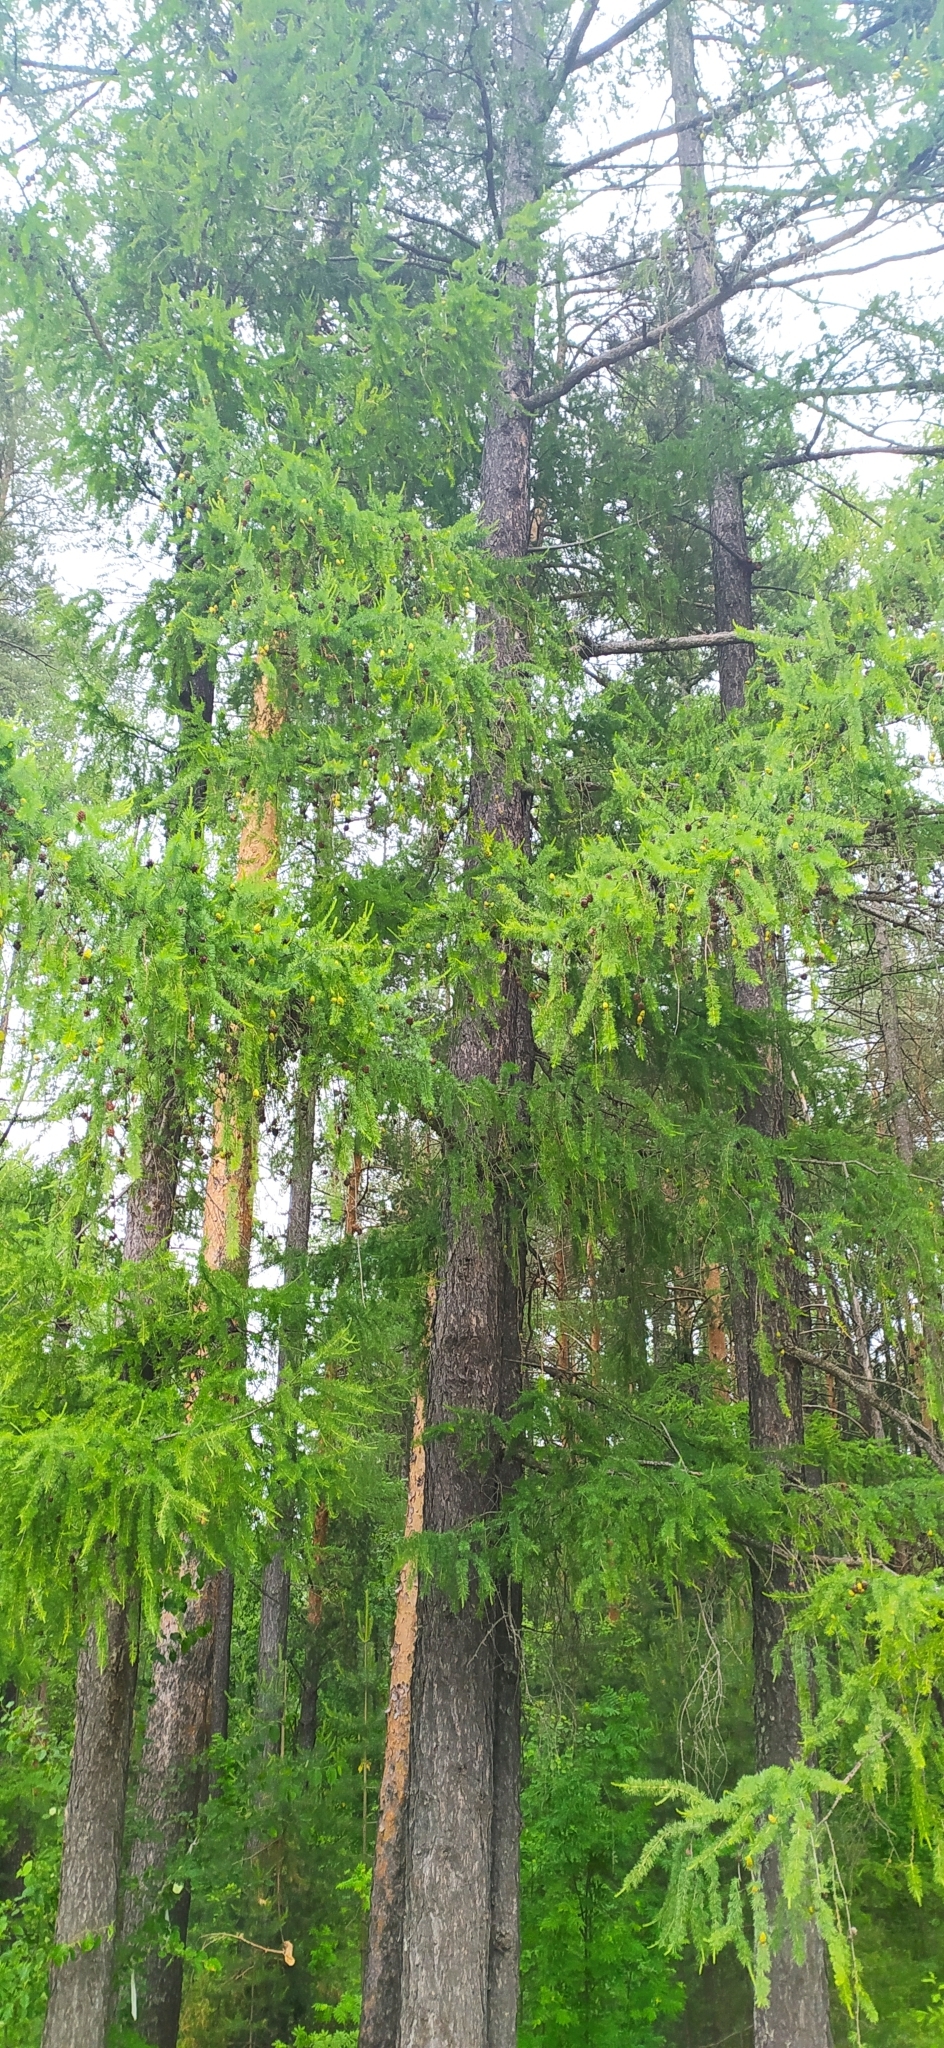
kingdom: Plantae
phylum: Tracheophyta
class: Pinopsida
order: Pinales
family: Pinaceae
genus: Larix
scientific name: Larix sibirica
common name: Siberian larch
